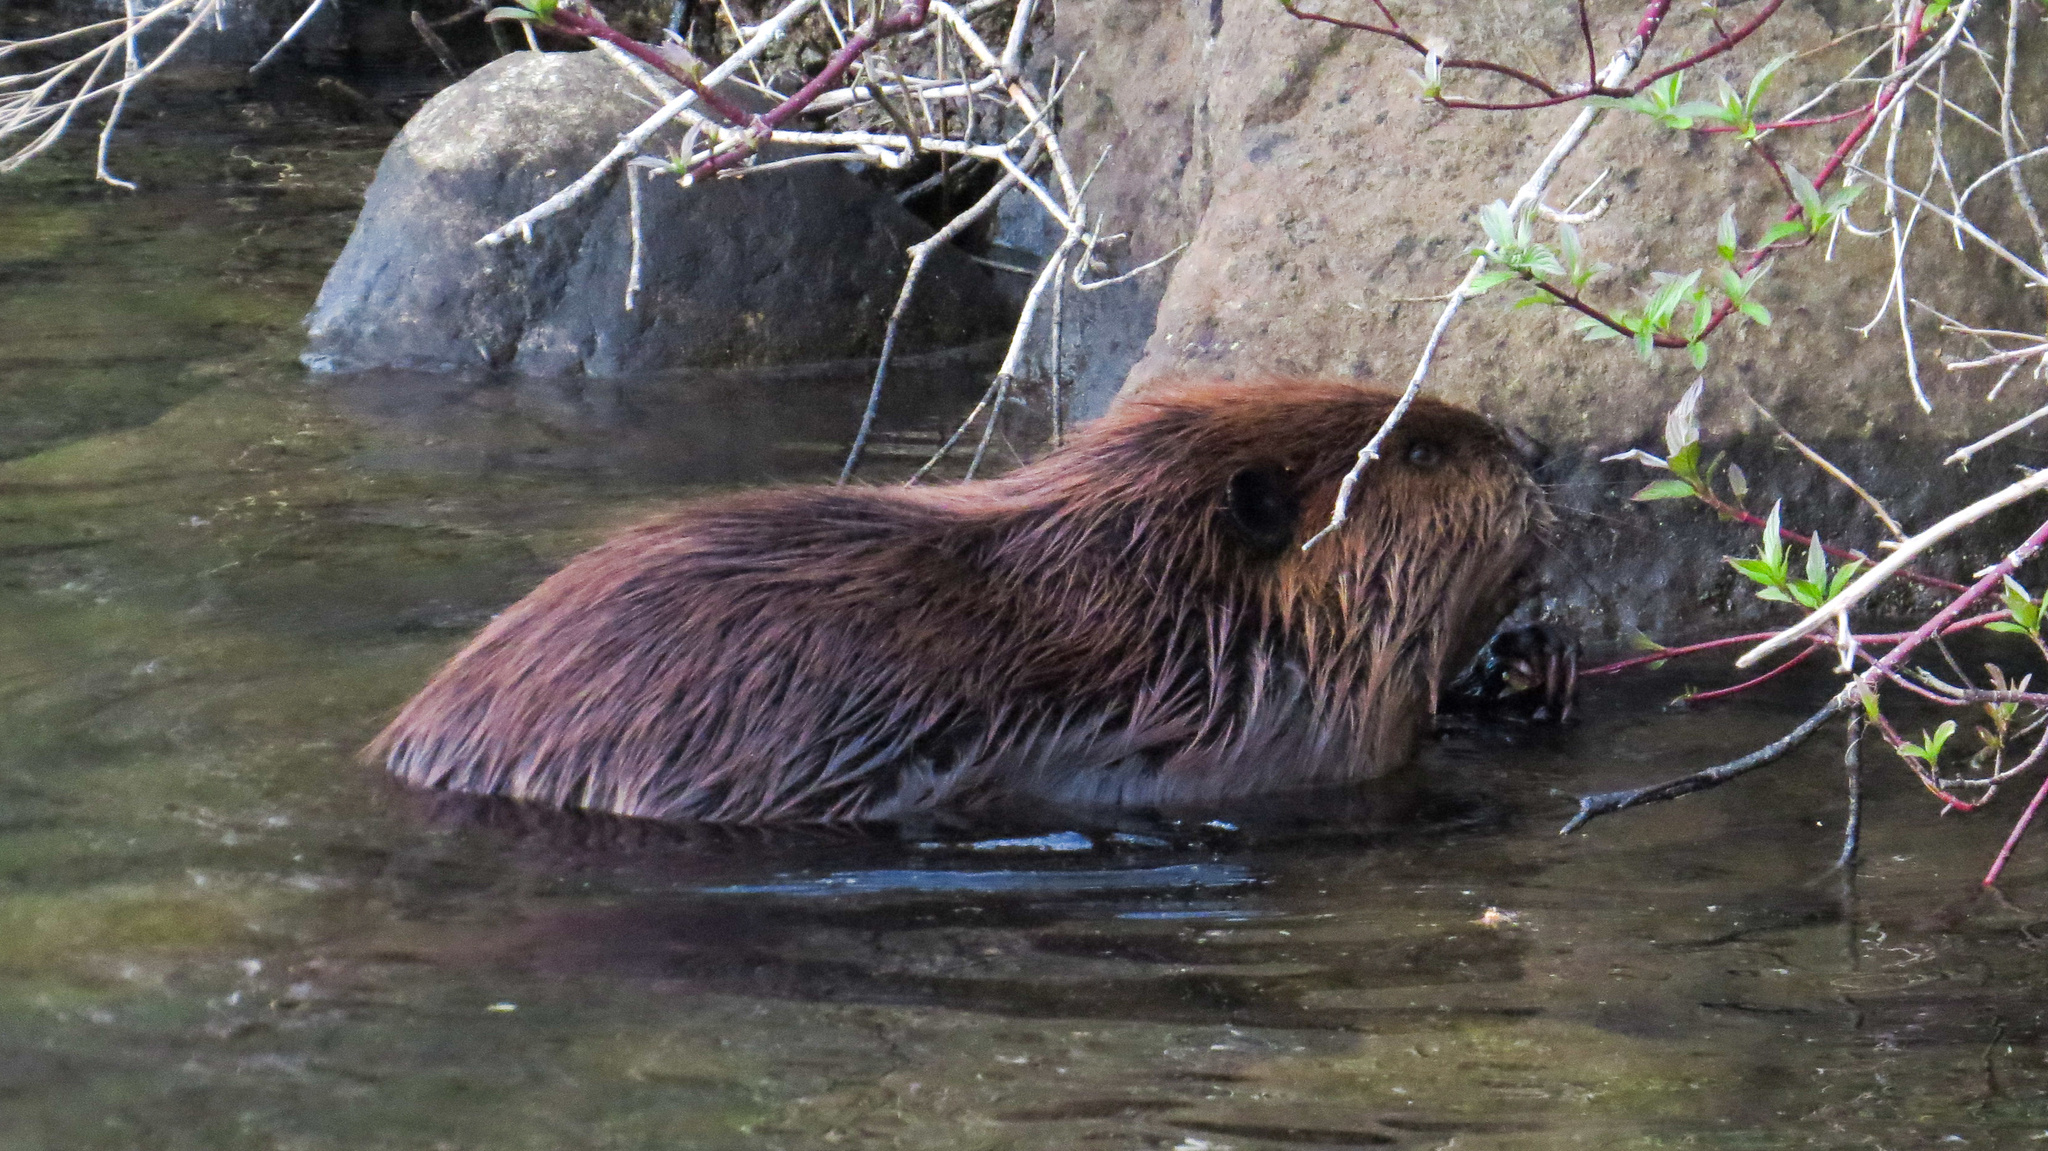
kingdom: Animalia
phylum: Chordata
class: Mammalia
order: Rodentia
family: Castoridae
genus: Castor
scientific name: Castor canadensis
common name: American beaver
